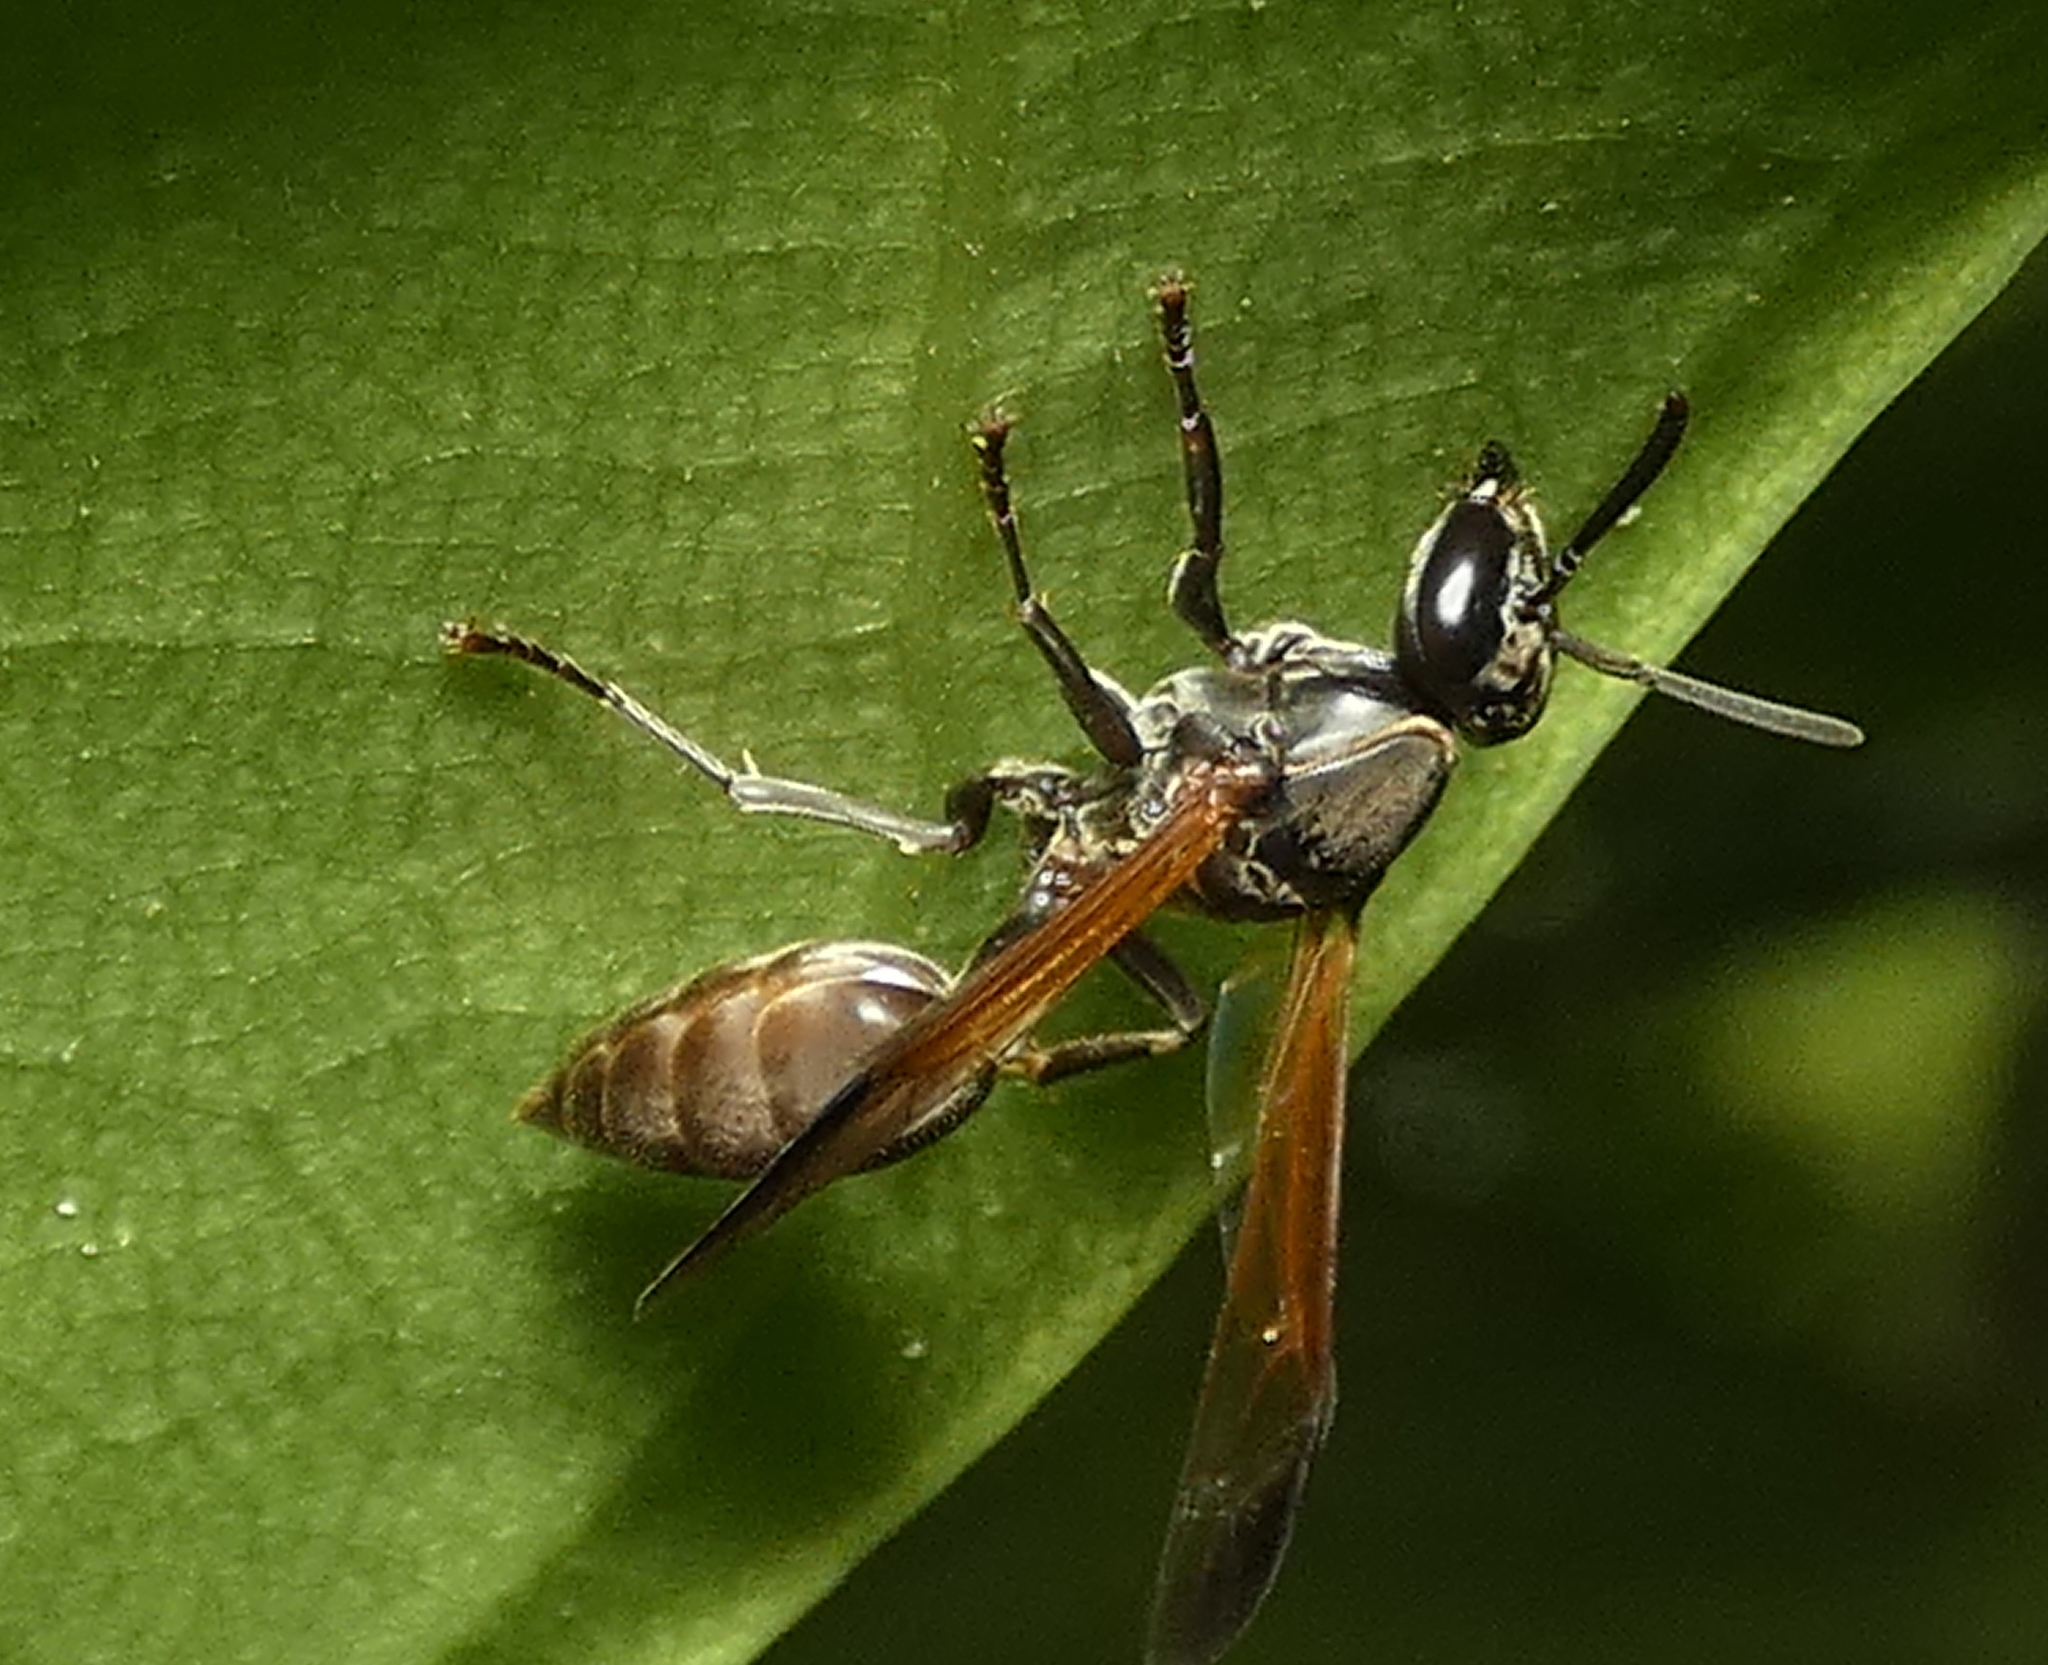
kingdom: Animalia
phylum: Arthropoda
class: Insecta
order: Hymenoptera
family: Eumenidae
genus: Polybia
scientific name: Polybia rejecta
